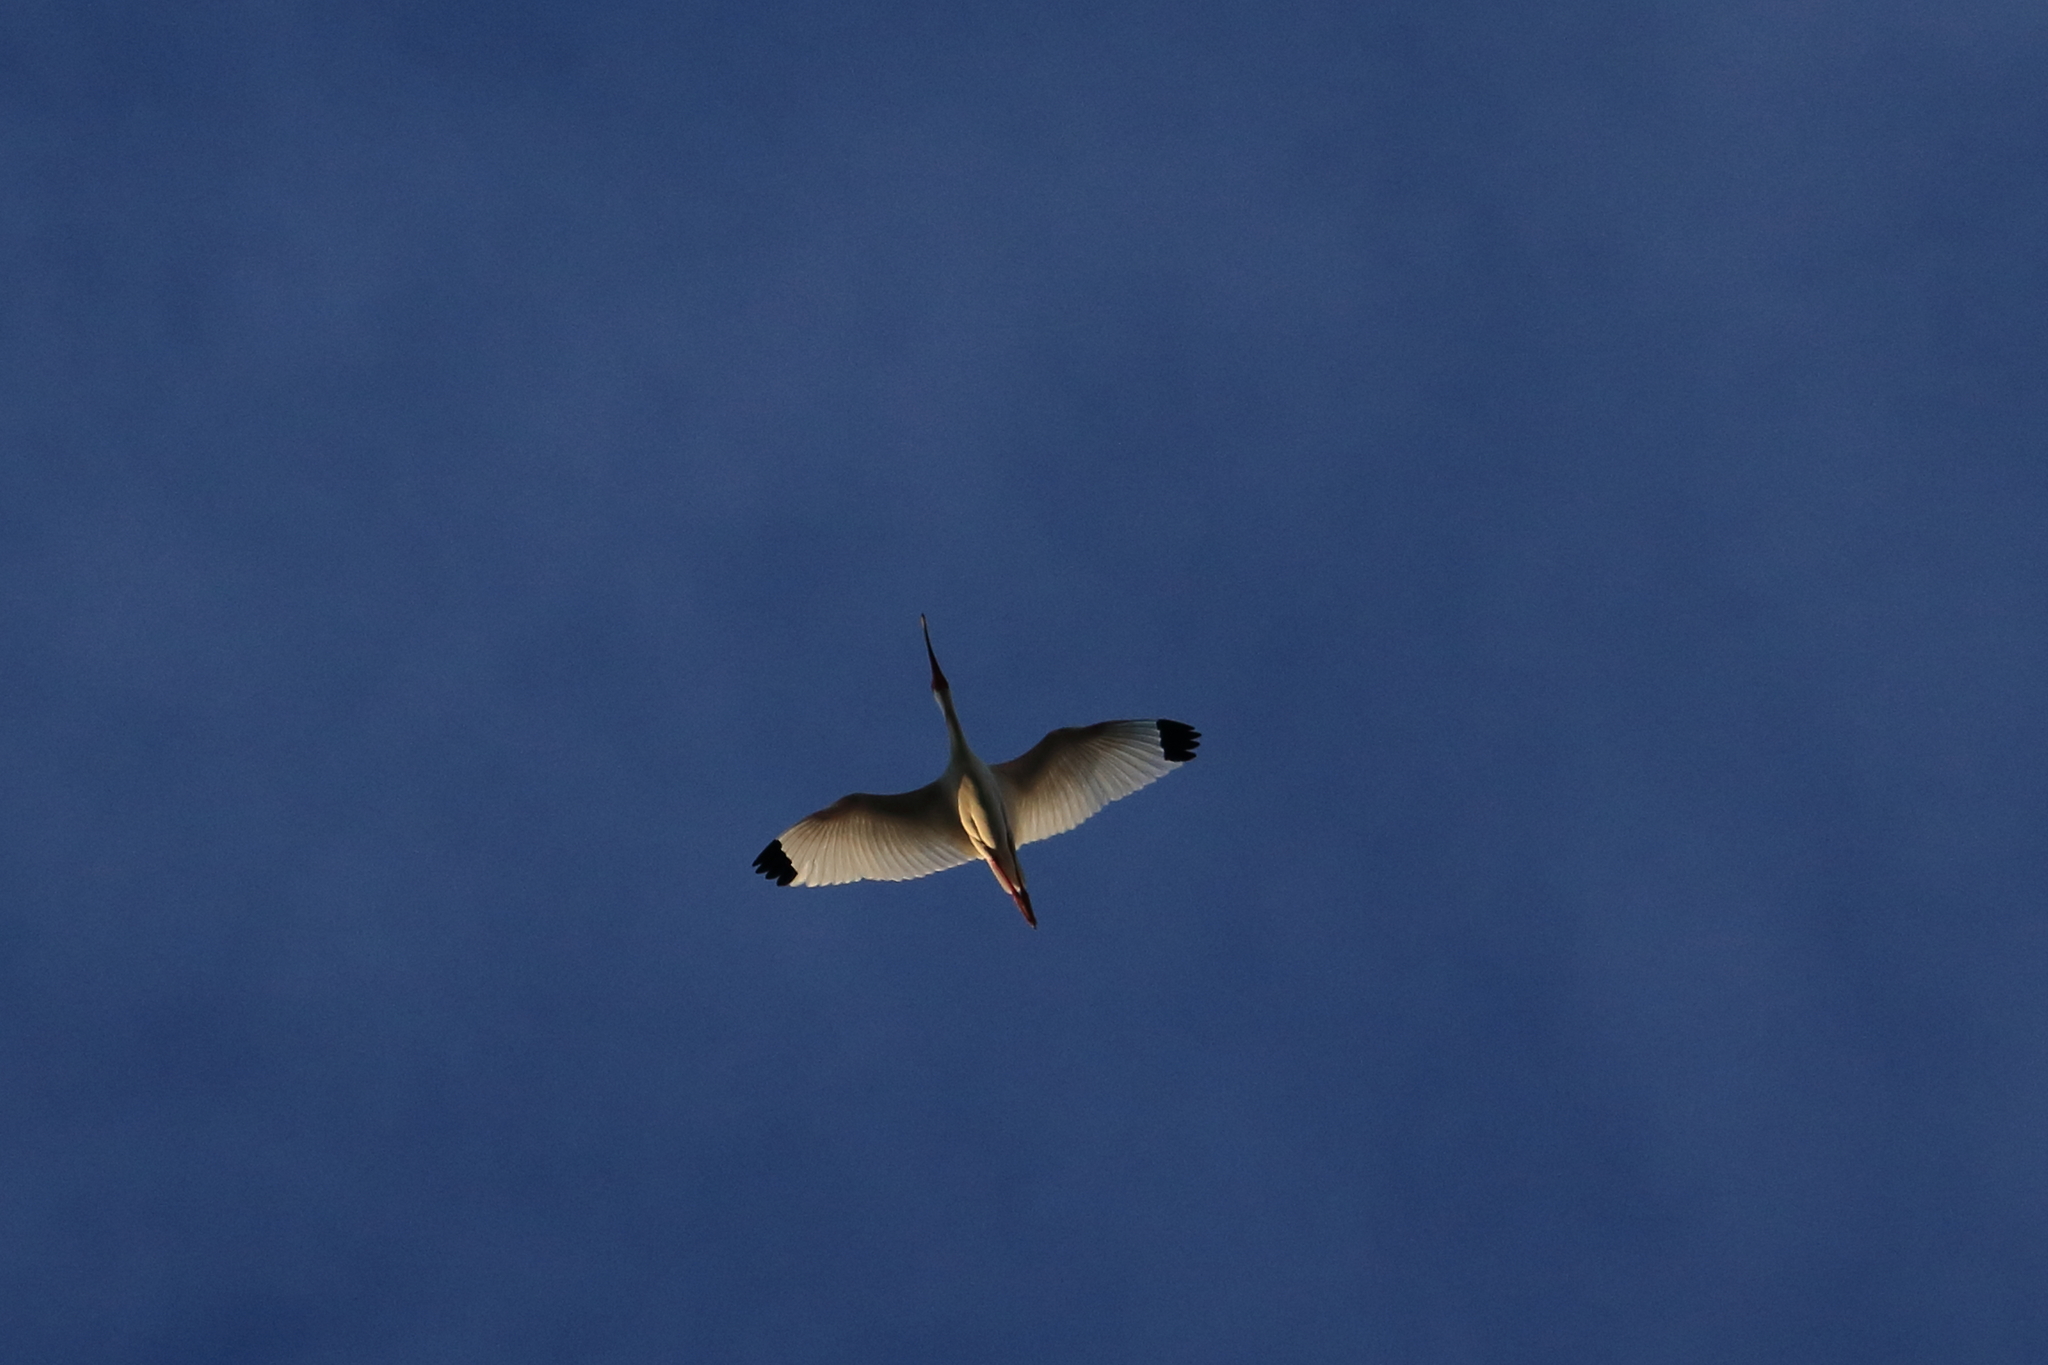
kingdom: Animalia
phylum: Chordata
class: Aves
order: Pelecaniformes
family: Threskiornithidae
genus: Eudocimus
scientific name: Eudocimus albus
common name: White ibis
